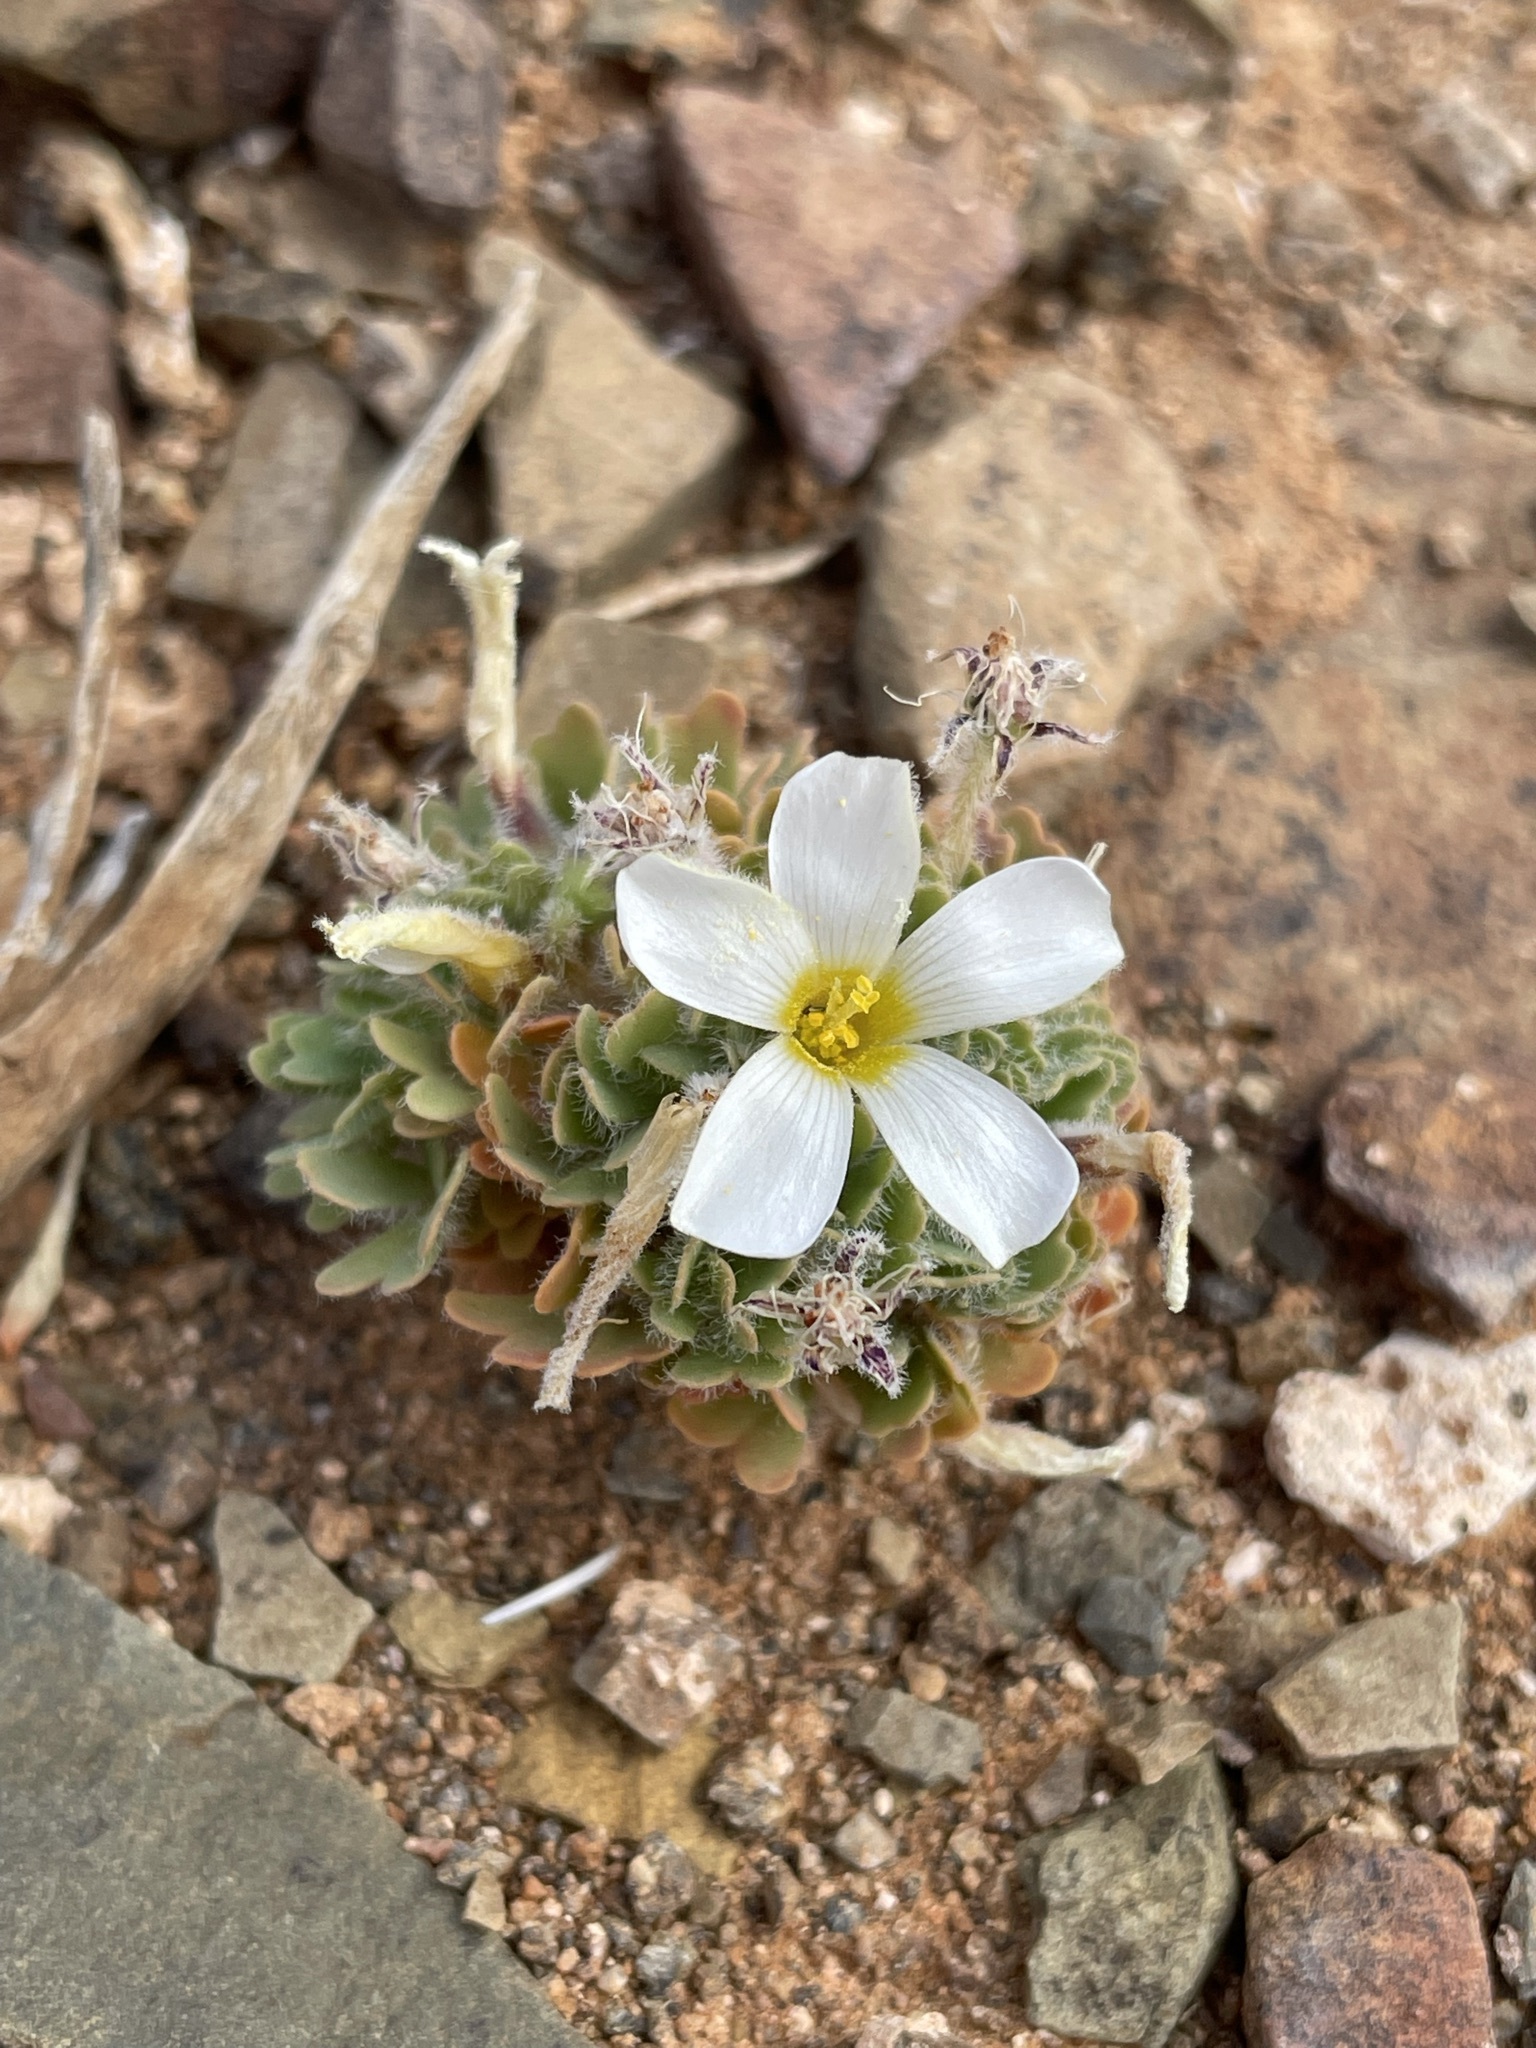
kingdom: Plantae
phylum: Tracheophyta
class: Magnoliopsida
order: Oxalidales
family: Oxalidaceae
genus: Oxalis
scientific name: Oxalis annae
